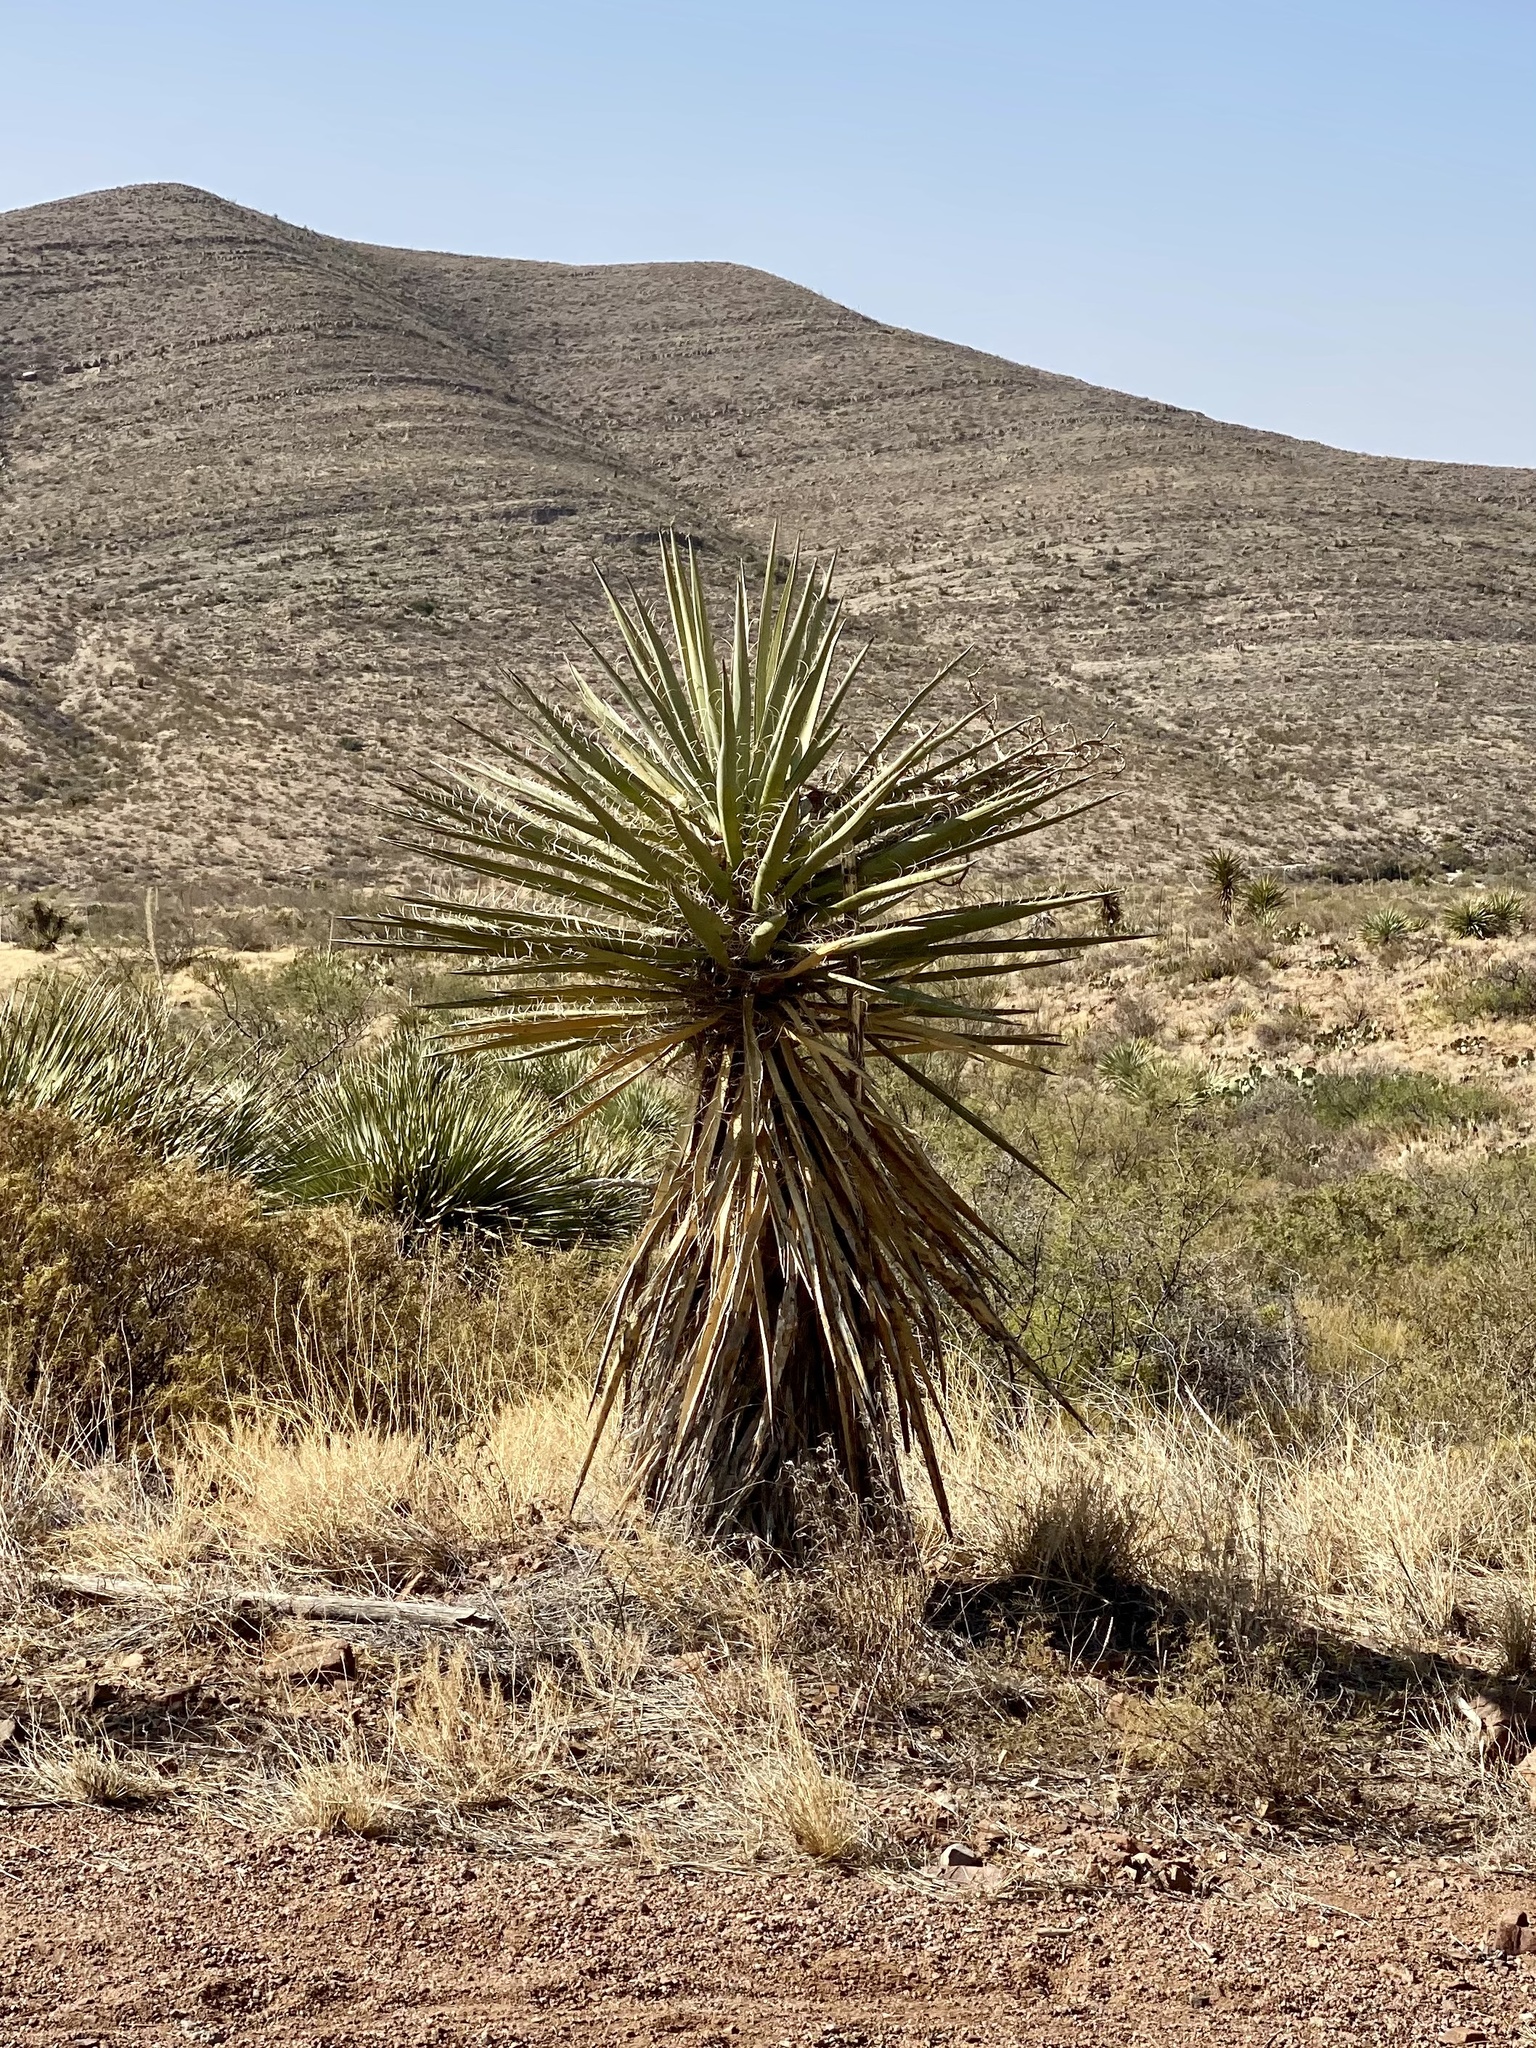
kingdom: Plantae
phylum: Tracheophyta
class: Liliopsida
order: Asparagales
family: Asparagaceae
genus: Yucca
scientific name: Yucca treculiana
